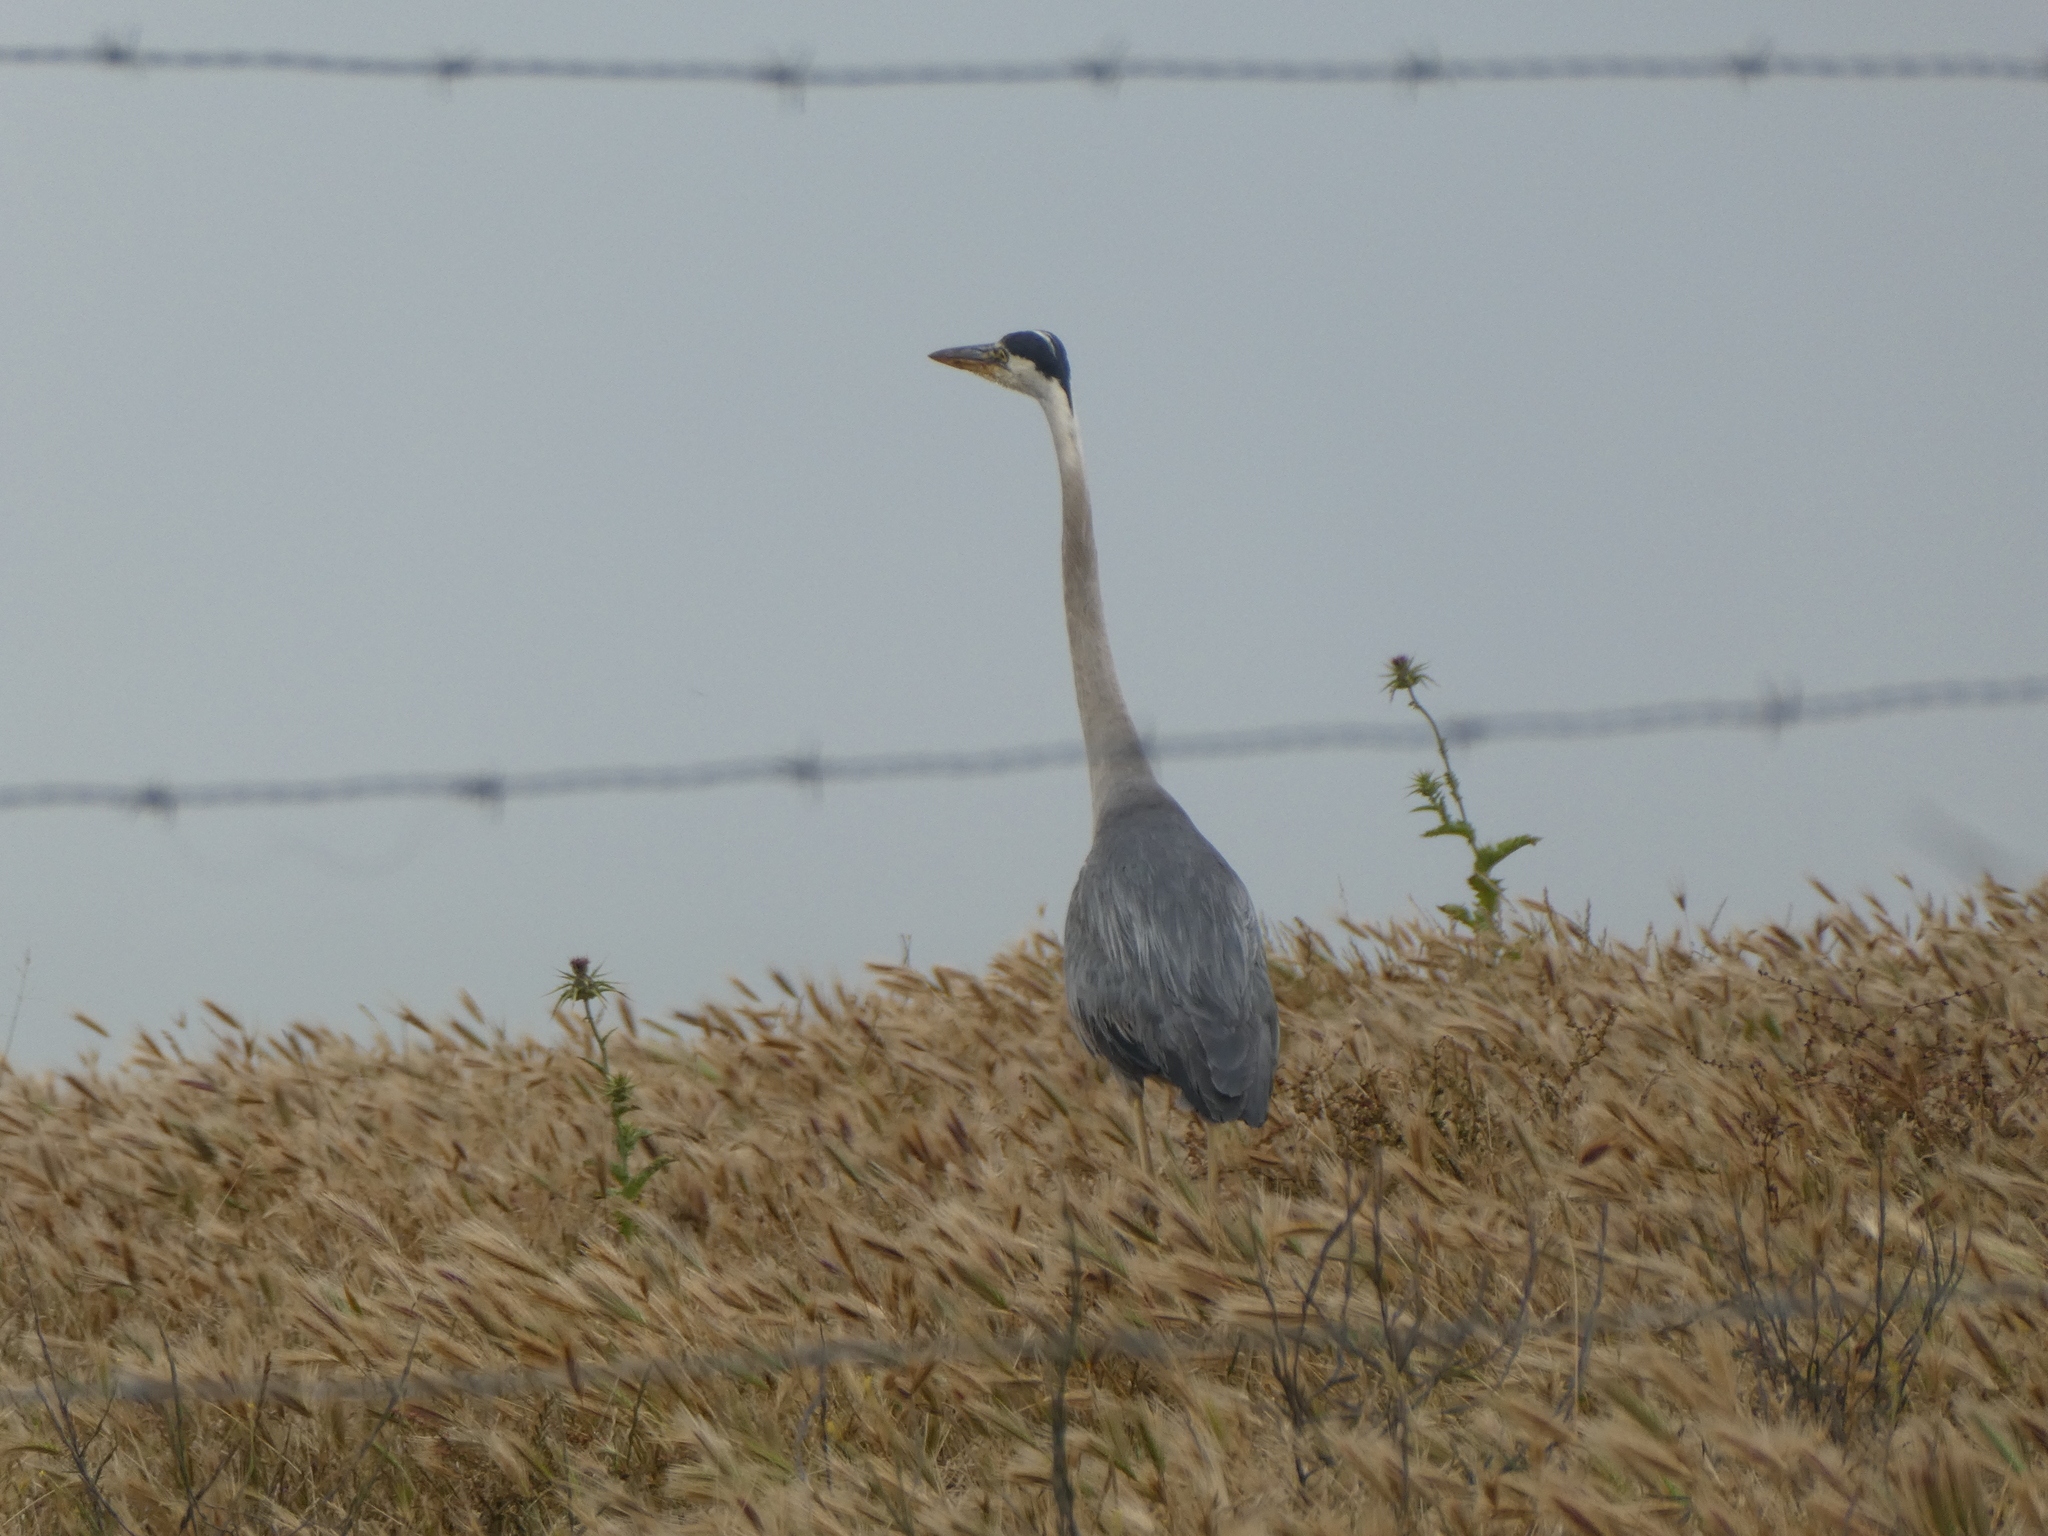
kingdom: Animalia
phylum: Chordata
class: Aves
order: Pelecaniformes
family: Ardeidae
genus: Ardea
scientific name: Ardea herodias
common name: Great blue heron
